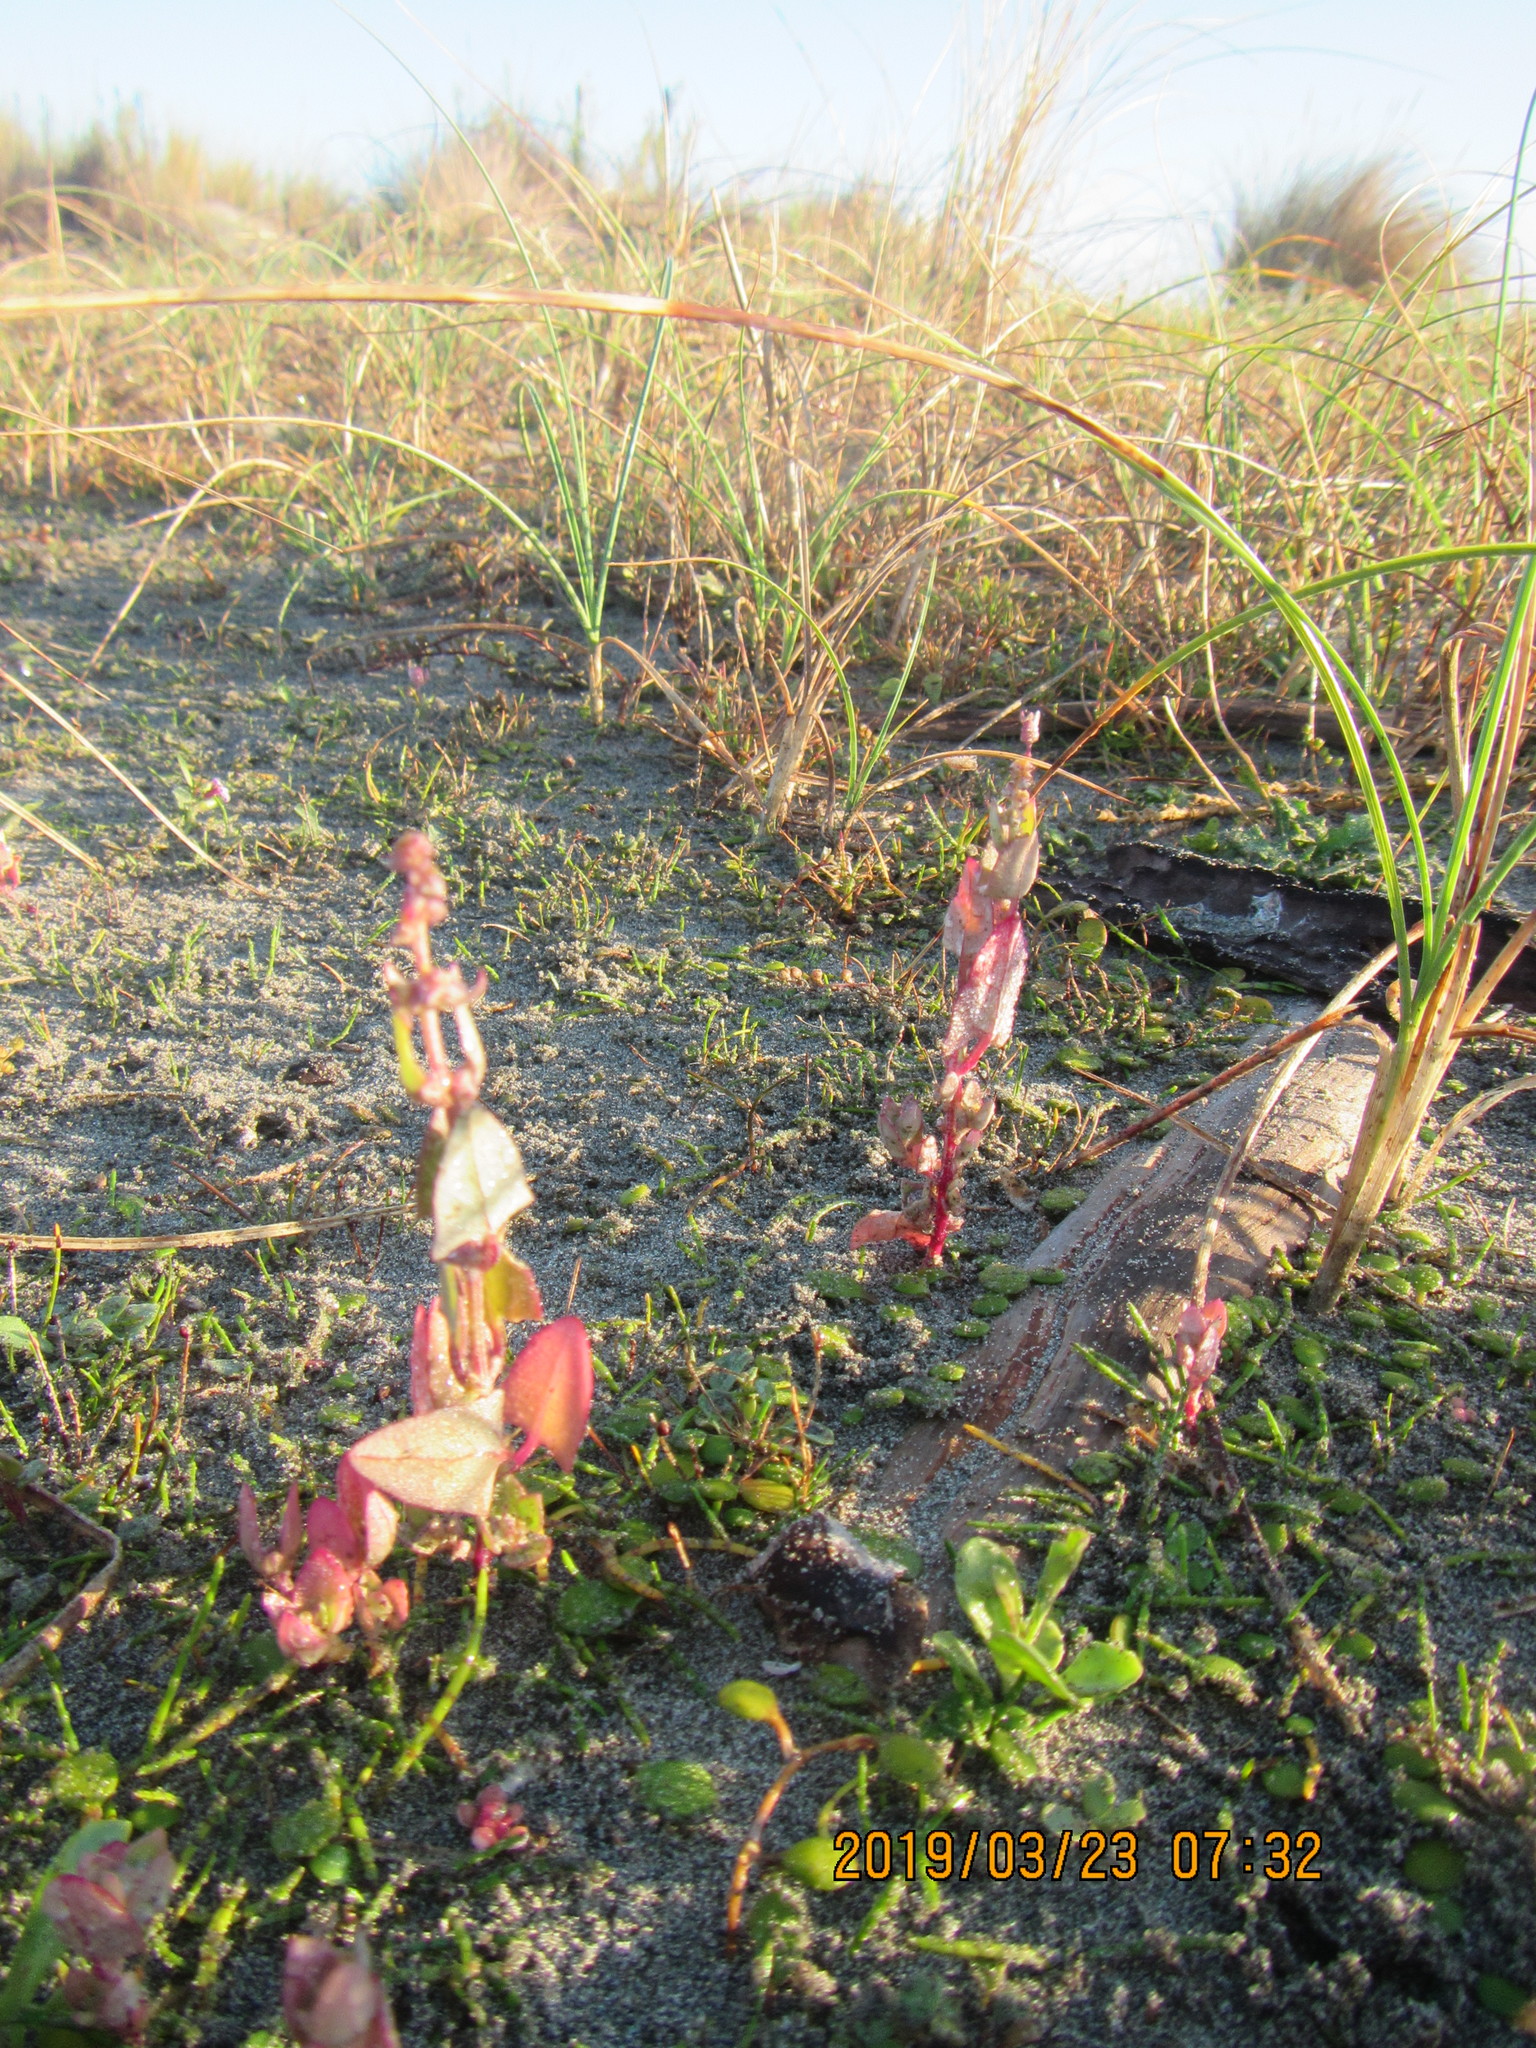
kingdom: Plantae
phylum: Tracheophyta
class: Magnoliopsida
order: Caryophyllales
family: Amaranthaceae
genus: Atriplex
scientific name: Atriplex prostrata
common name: Spear-leaved orache
